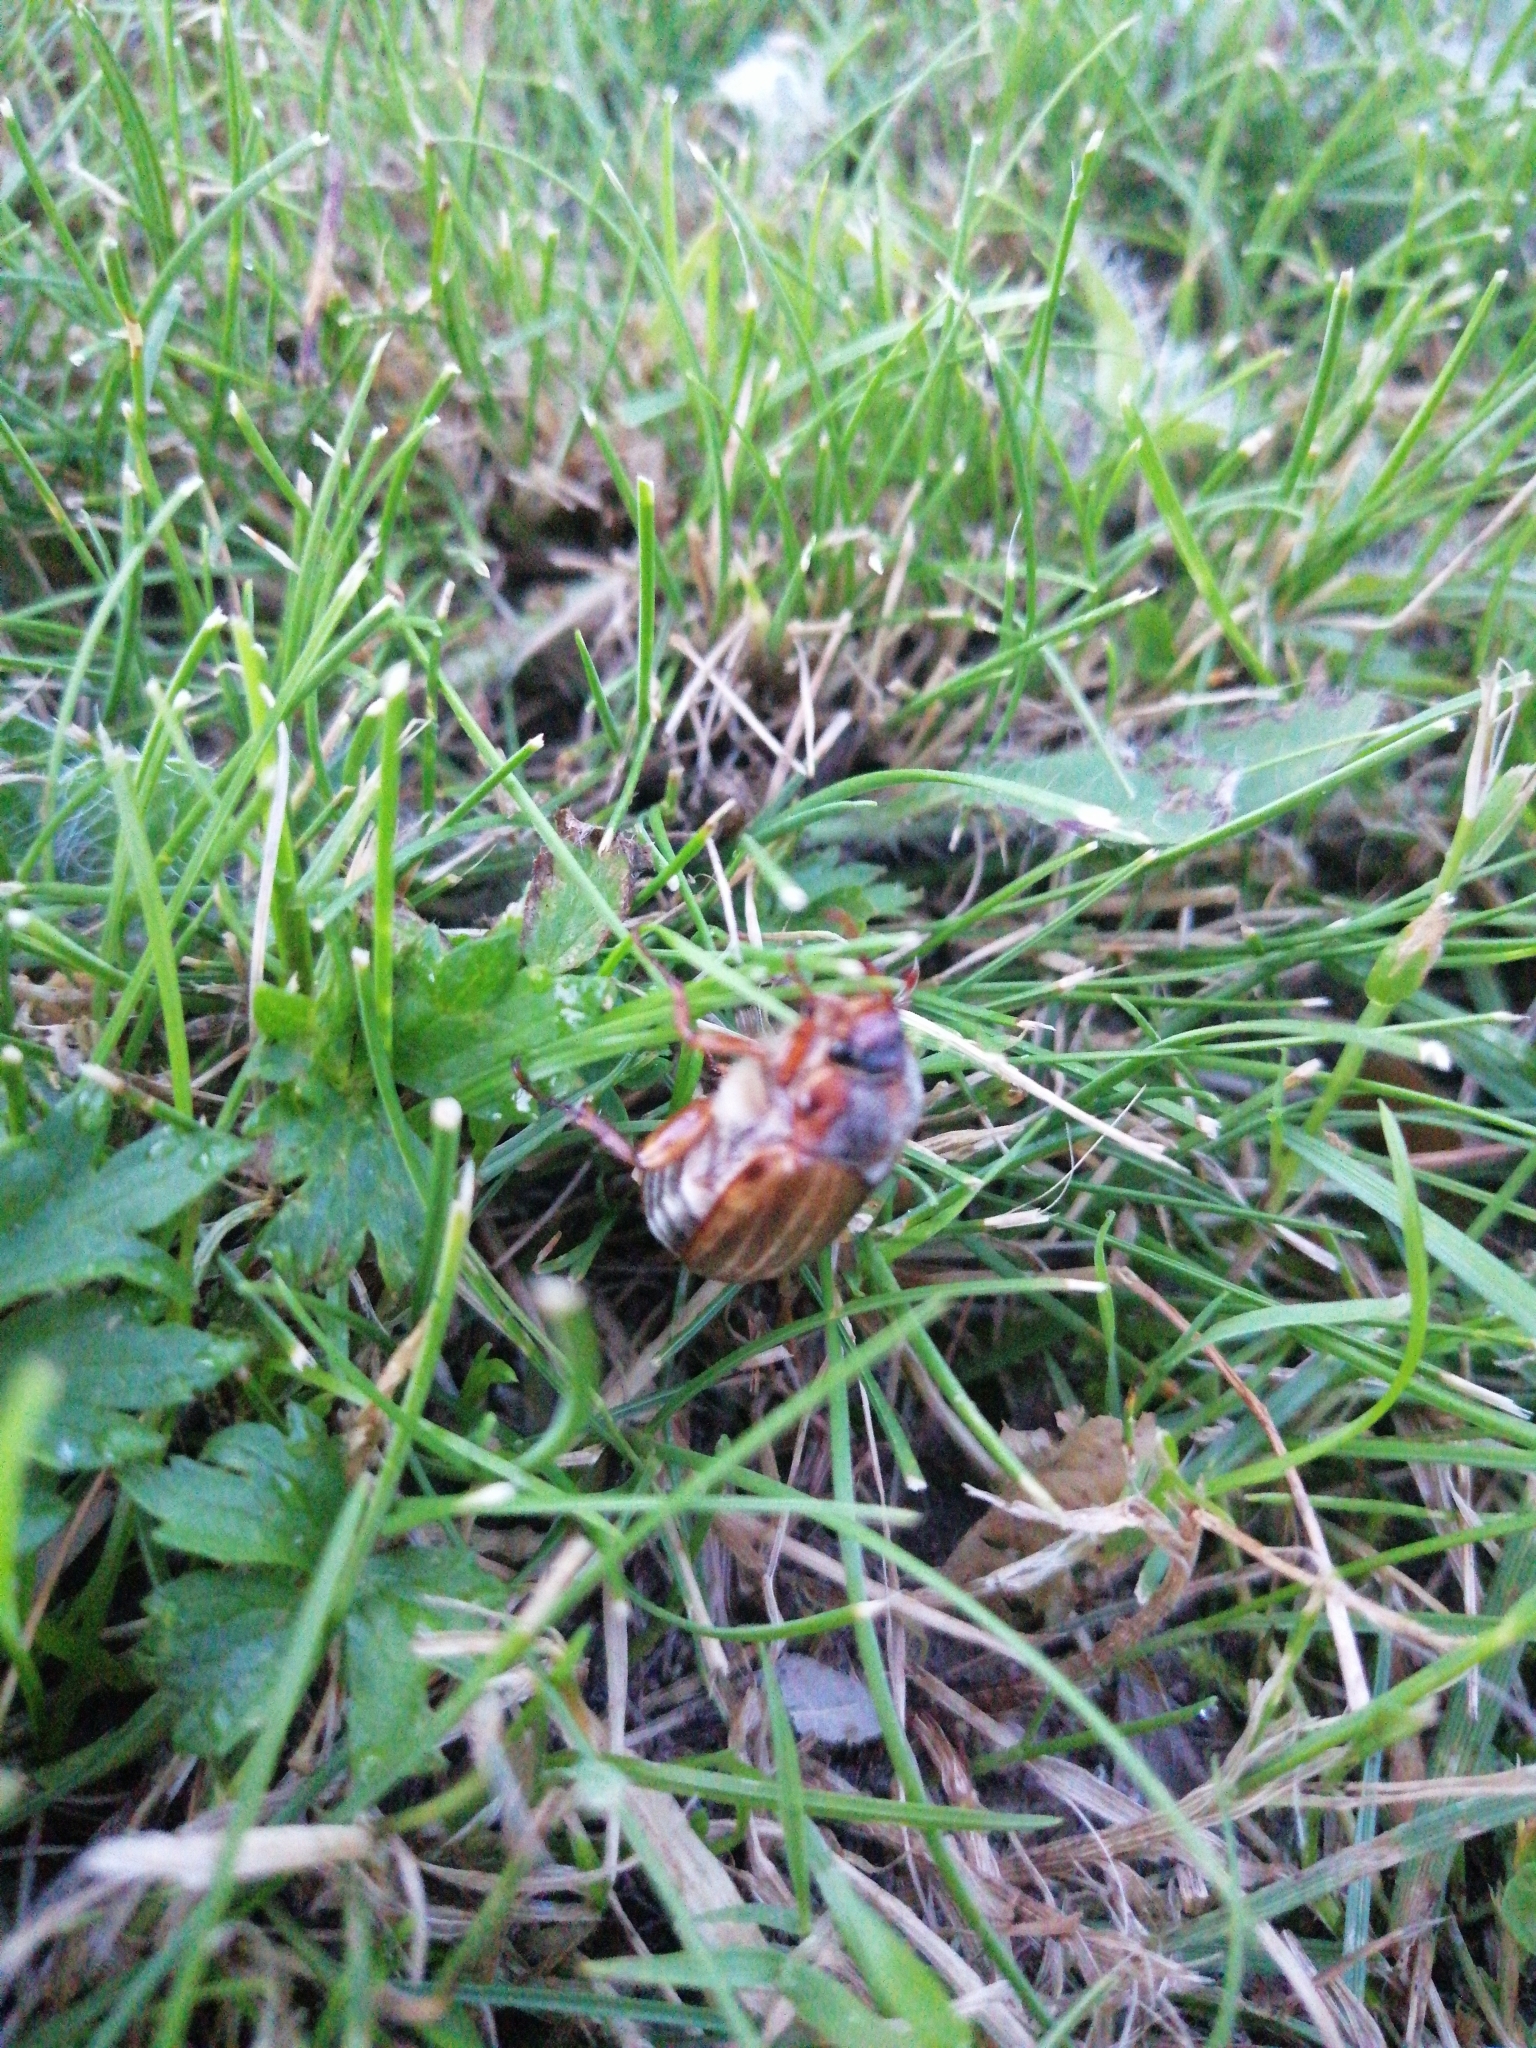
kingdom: Animalia
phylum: Arthropoda
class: Insecta
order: Coleoptera
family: Scarabaeidae
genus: Amphimallon
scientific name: Amphimallon solstitiale
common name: Summer chafer
